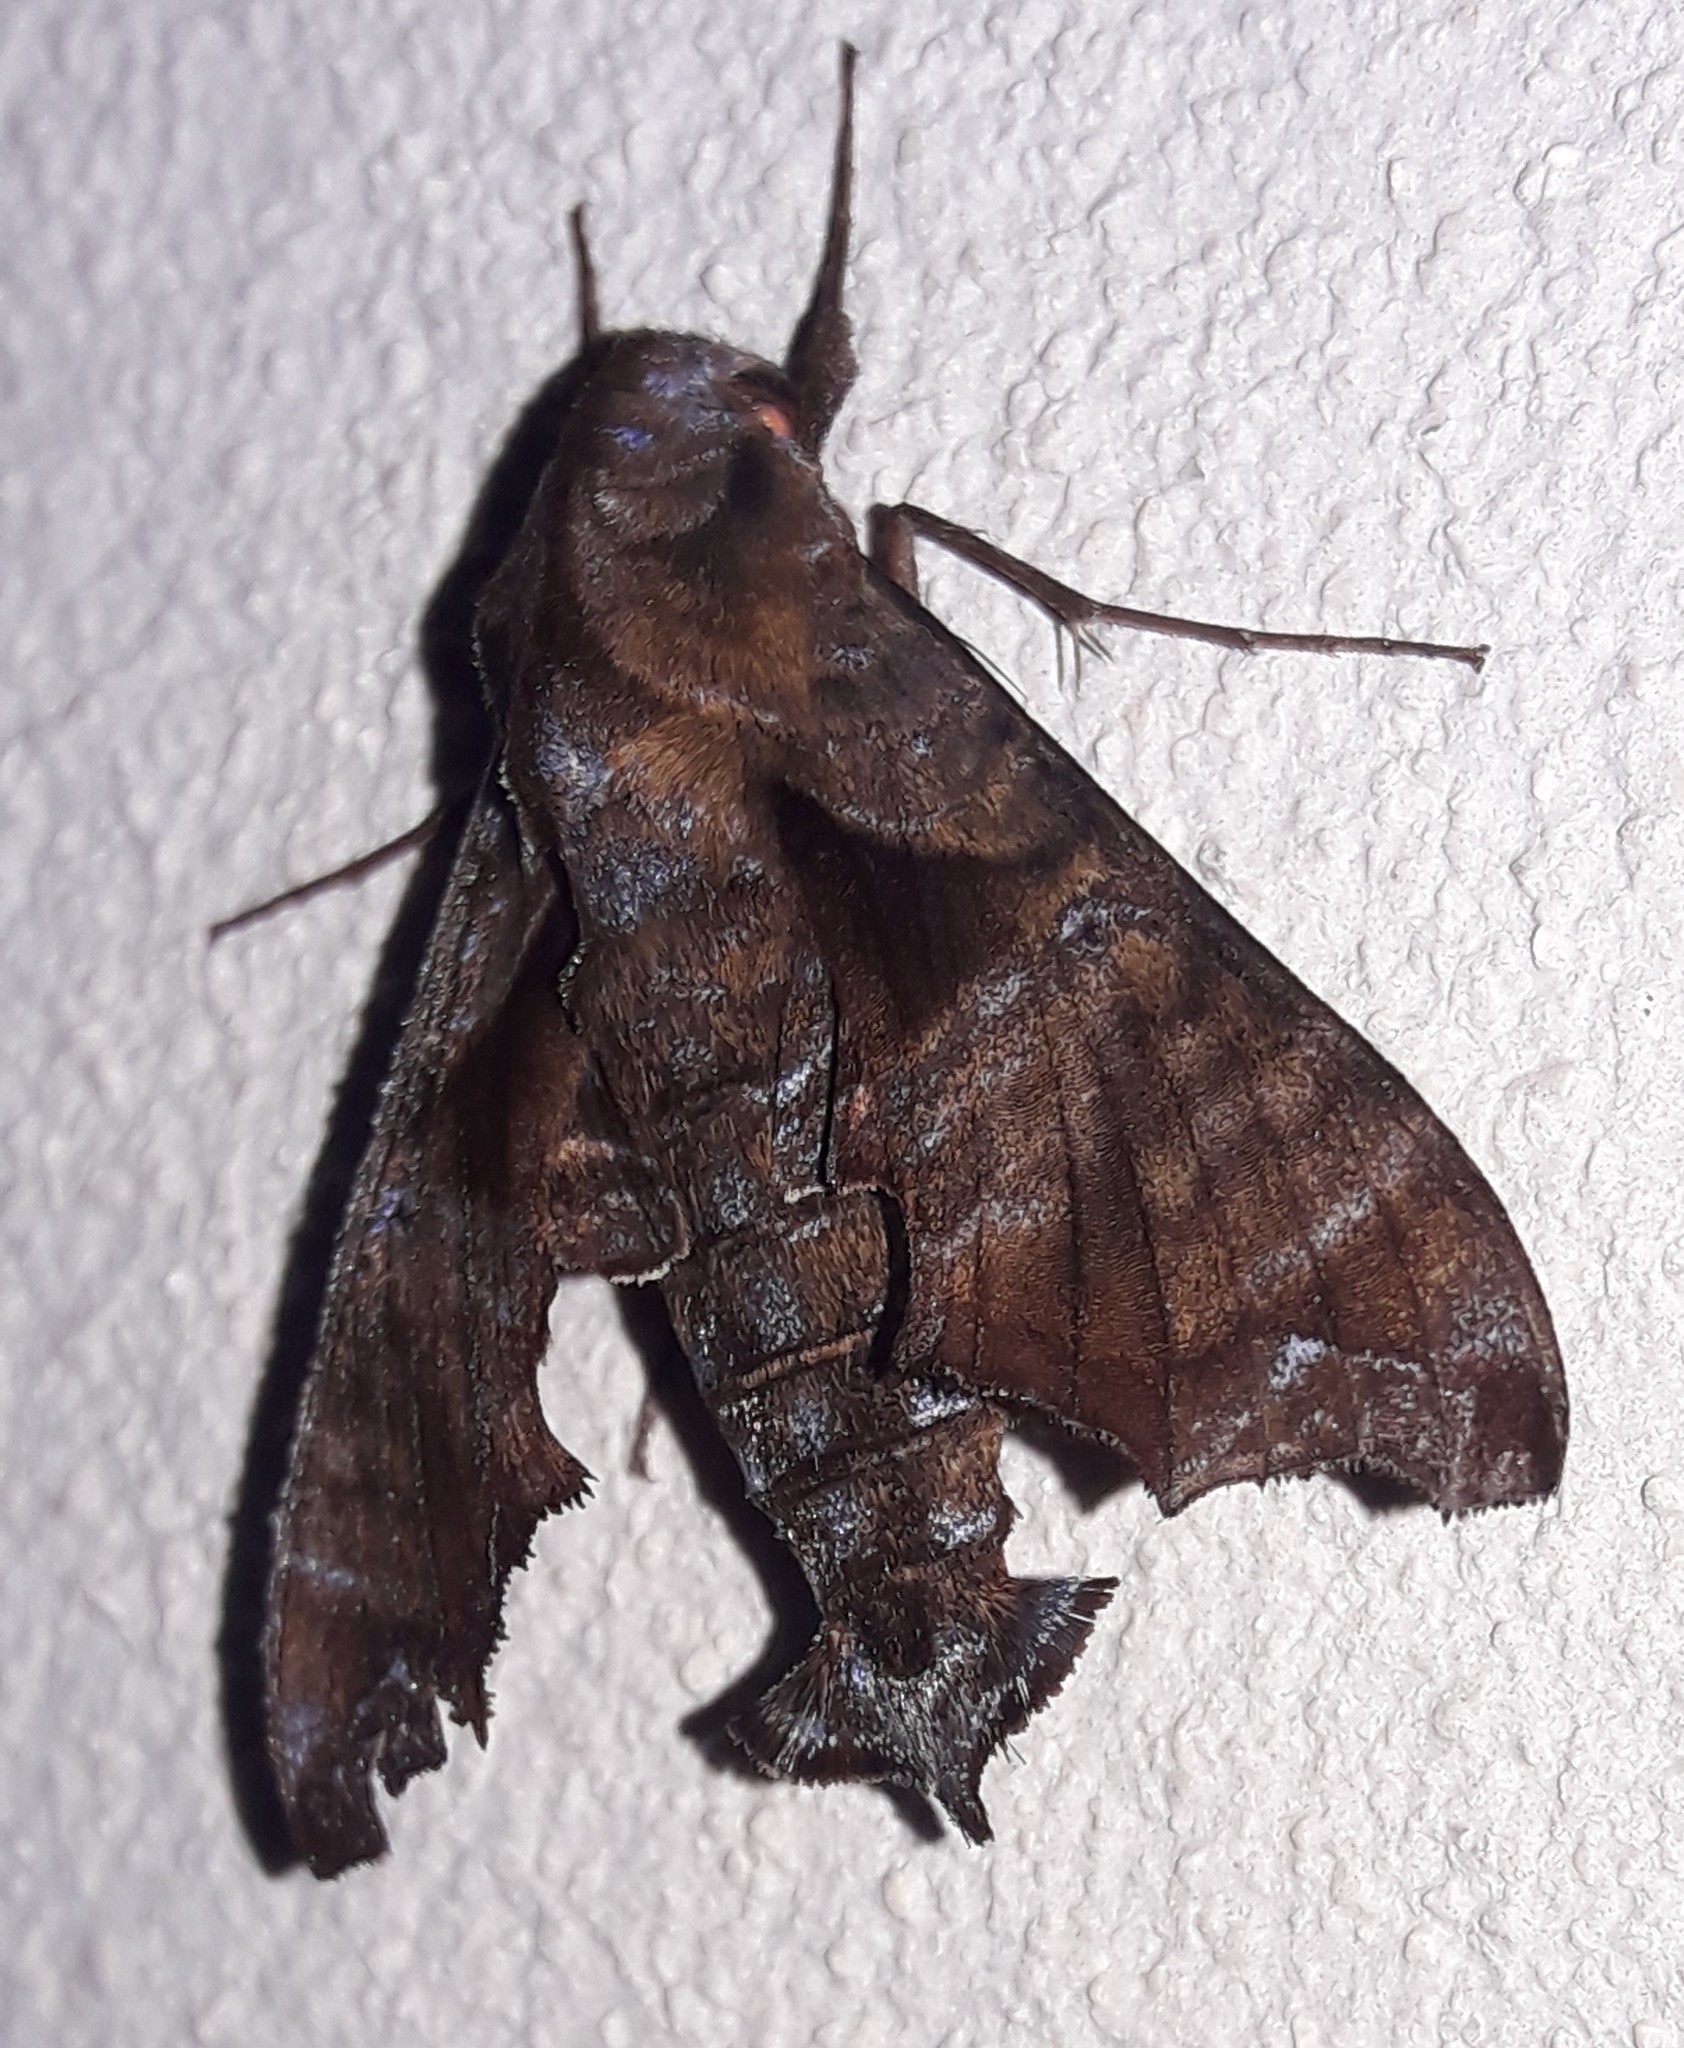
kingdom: Animalia
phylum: Arthropoda
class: Insecta
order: Lepidoptera
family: Sphingidae
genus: Nyceryx
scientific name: Nyceryx eximia
